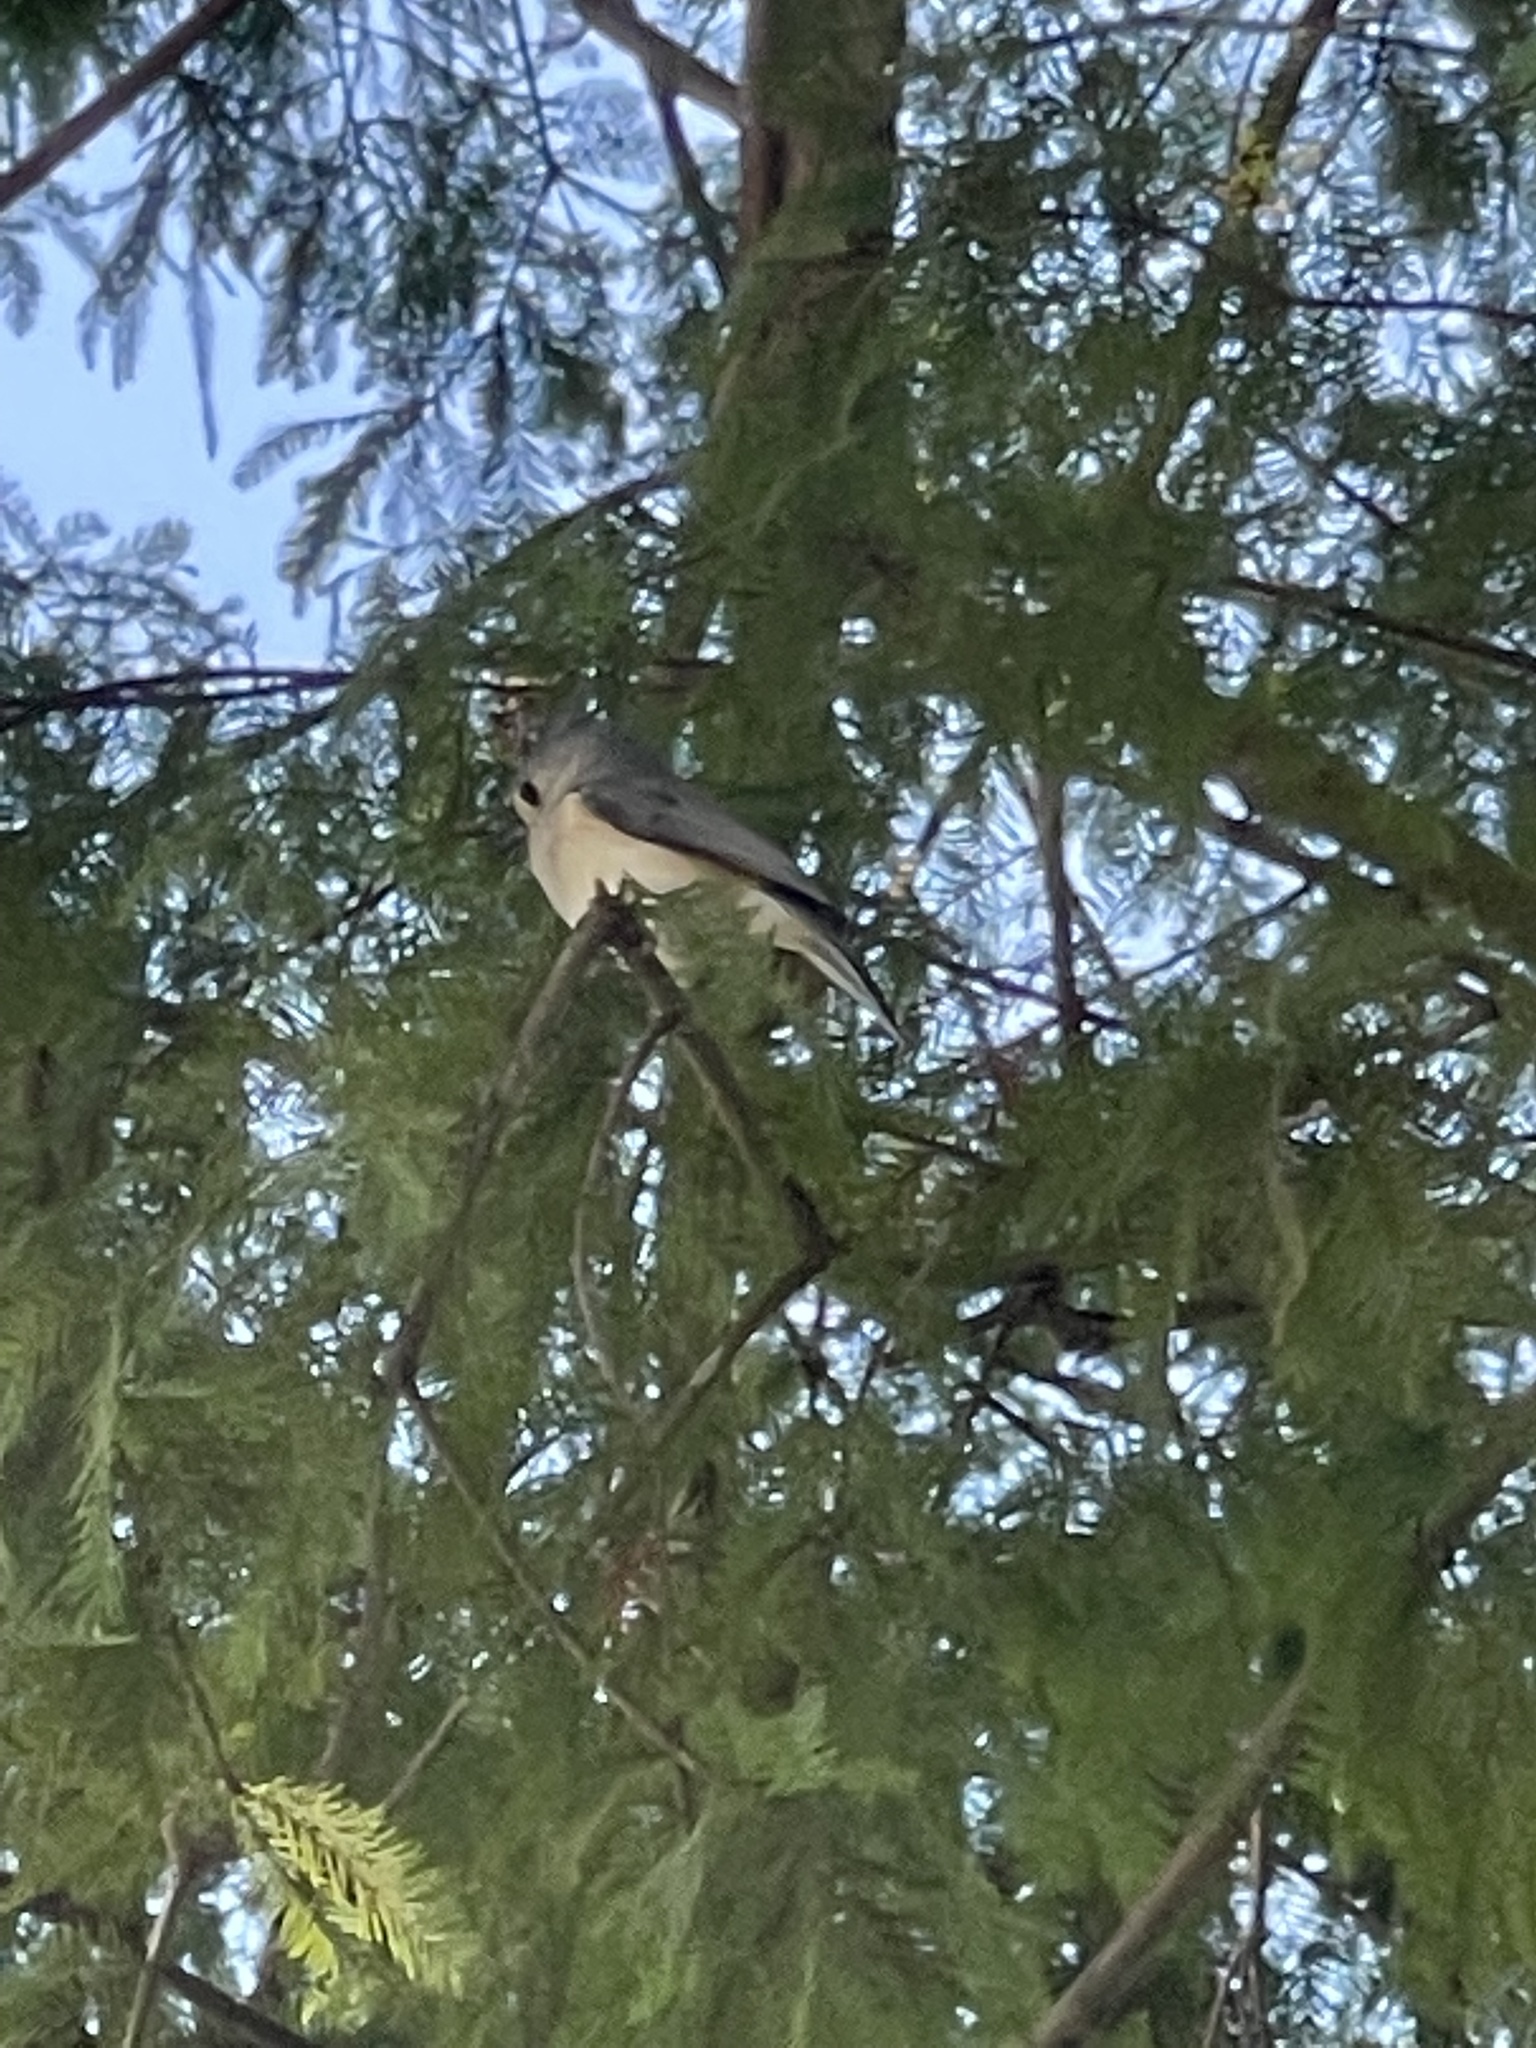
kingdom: Animalia
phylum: Chordata
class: Aves
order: Passeriformes
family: Paridae
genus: Baeolophus
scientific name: Baeolophus bicolor
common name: Tufted titmouse
